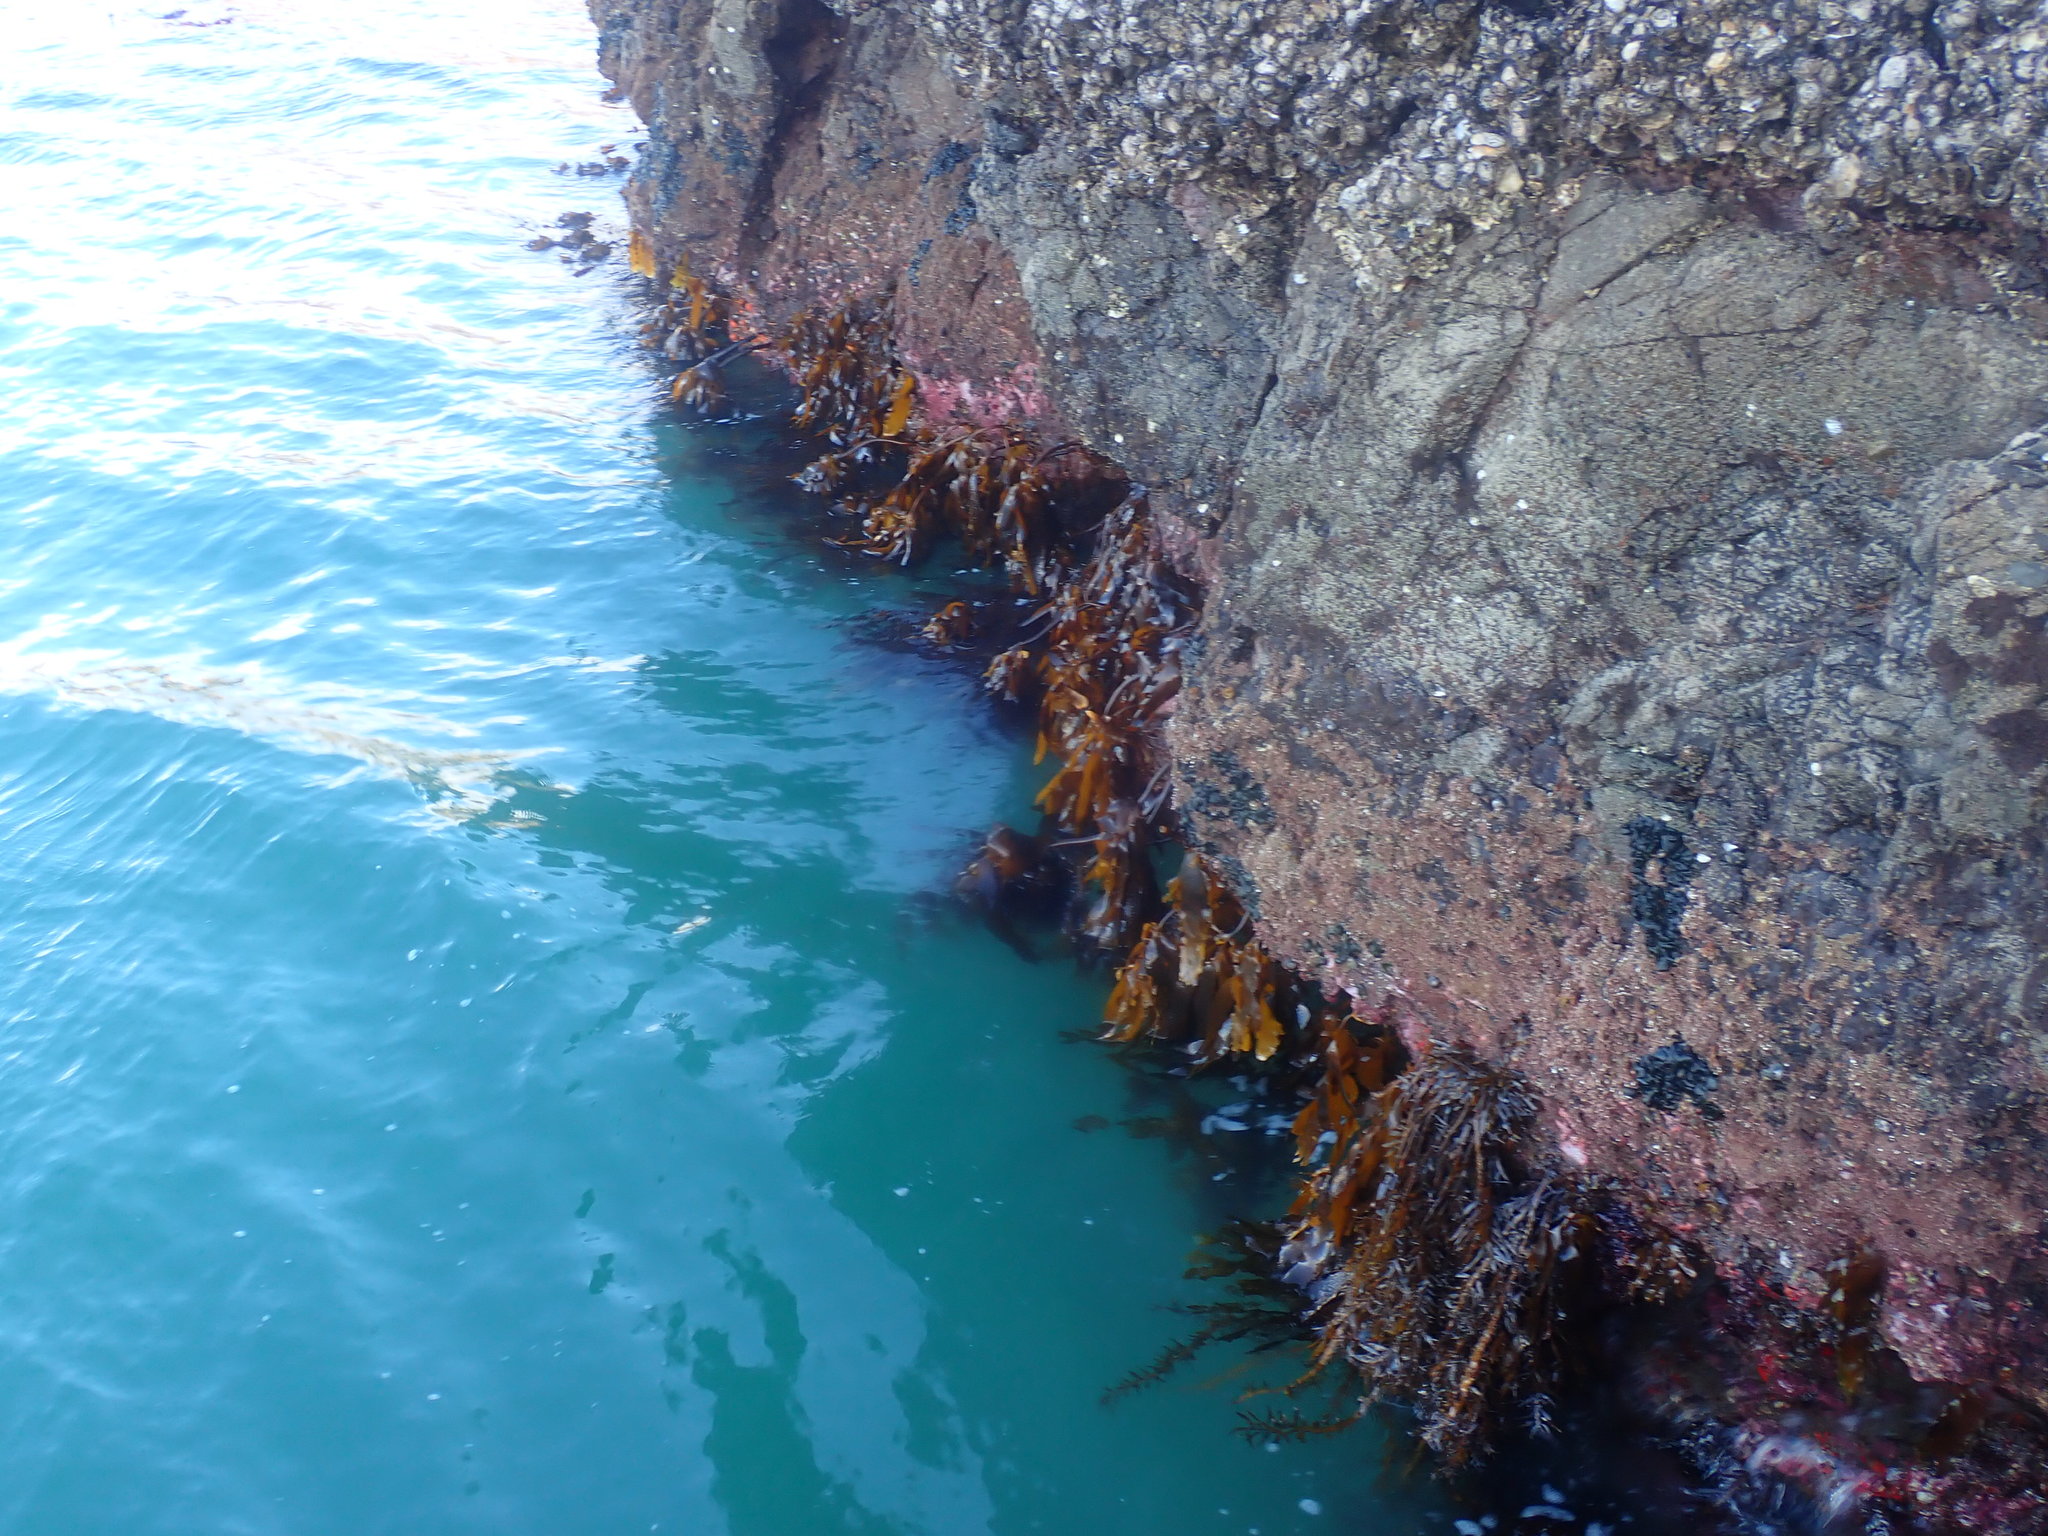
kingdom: Chromista
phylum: Ochrophyta
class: Phaeophyceae
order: Laminariales
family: Lessoniaceae
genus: Ecklonia
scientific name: Ecklonia radiata
